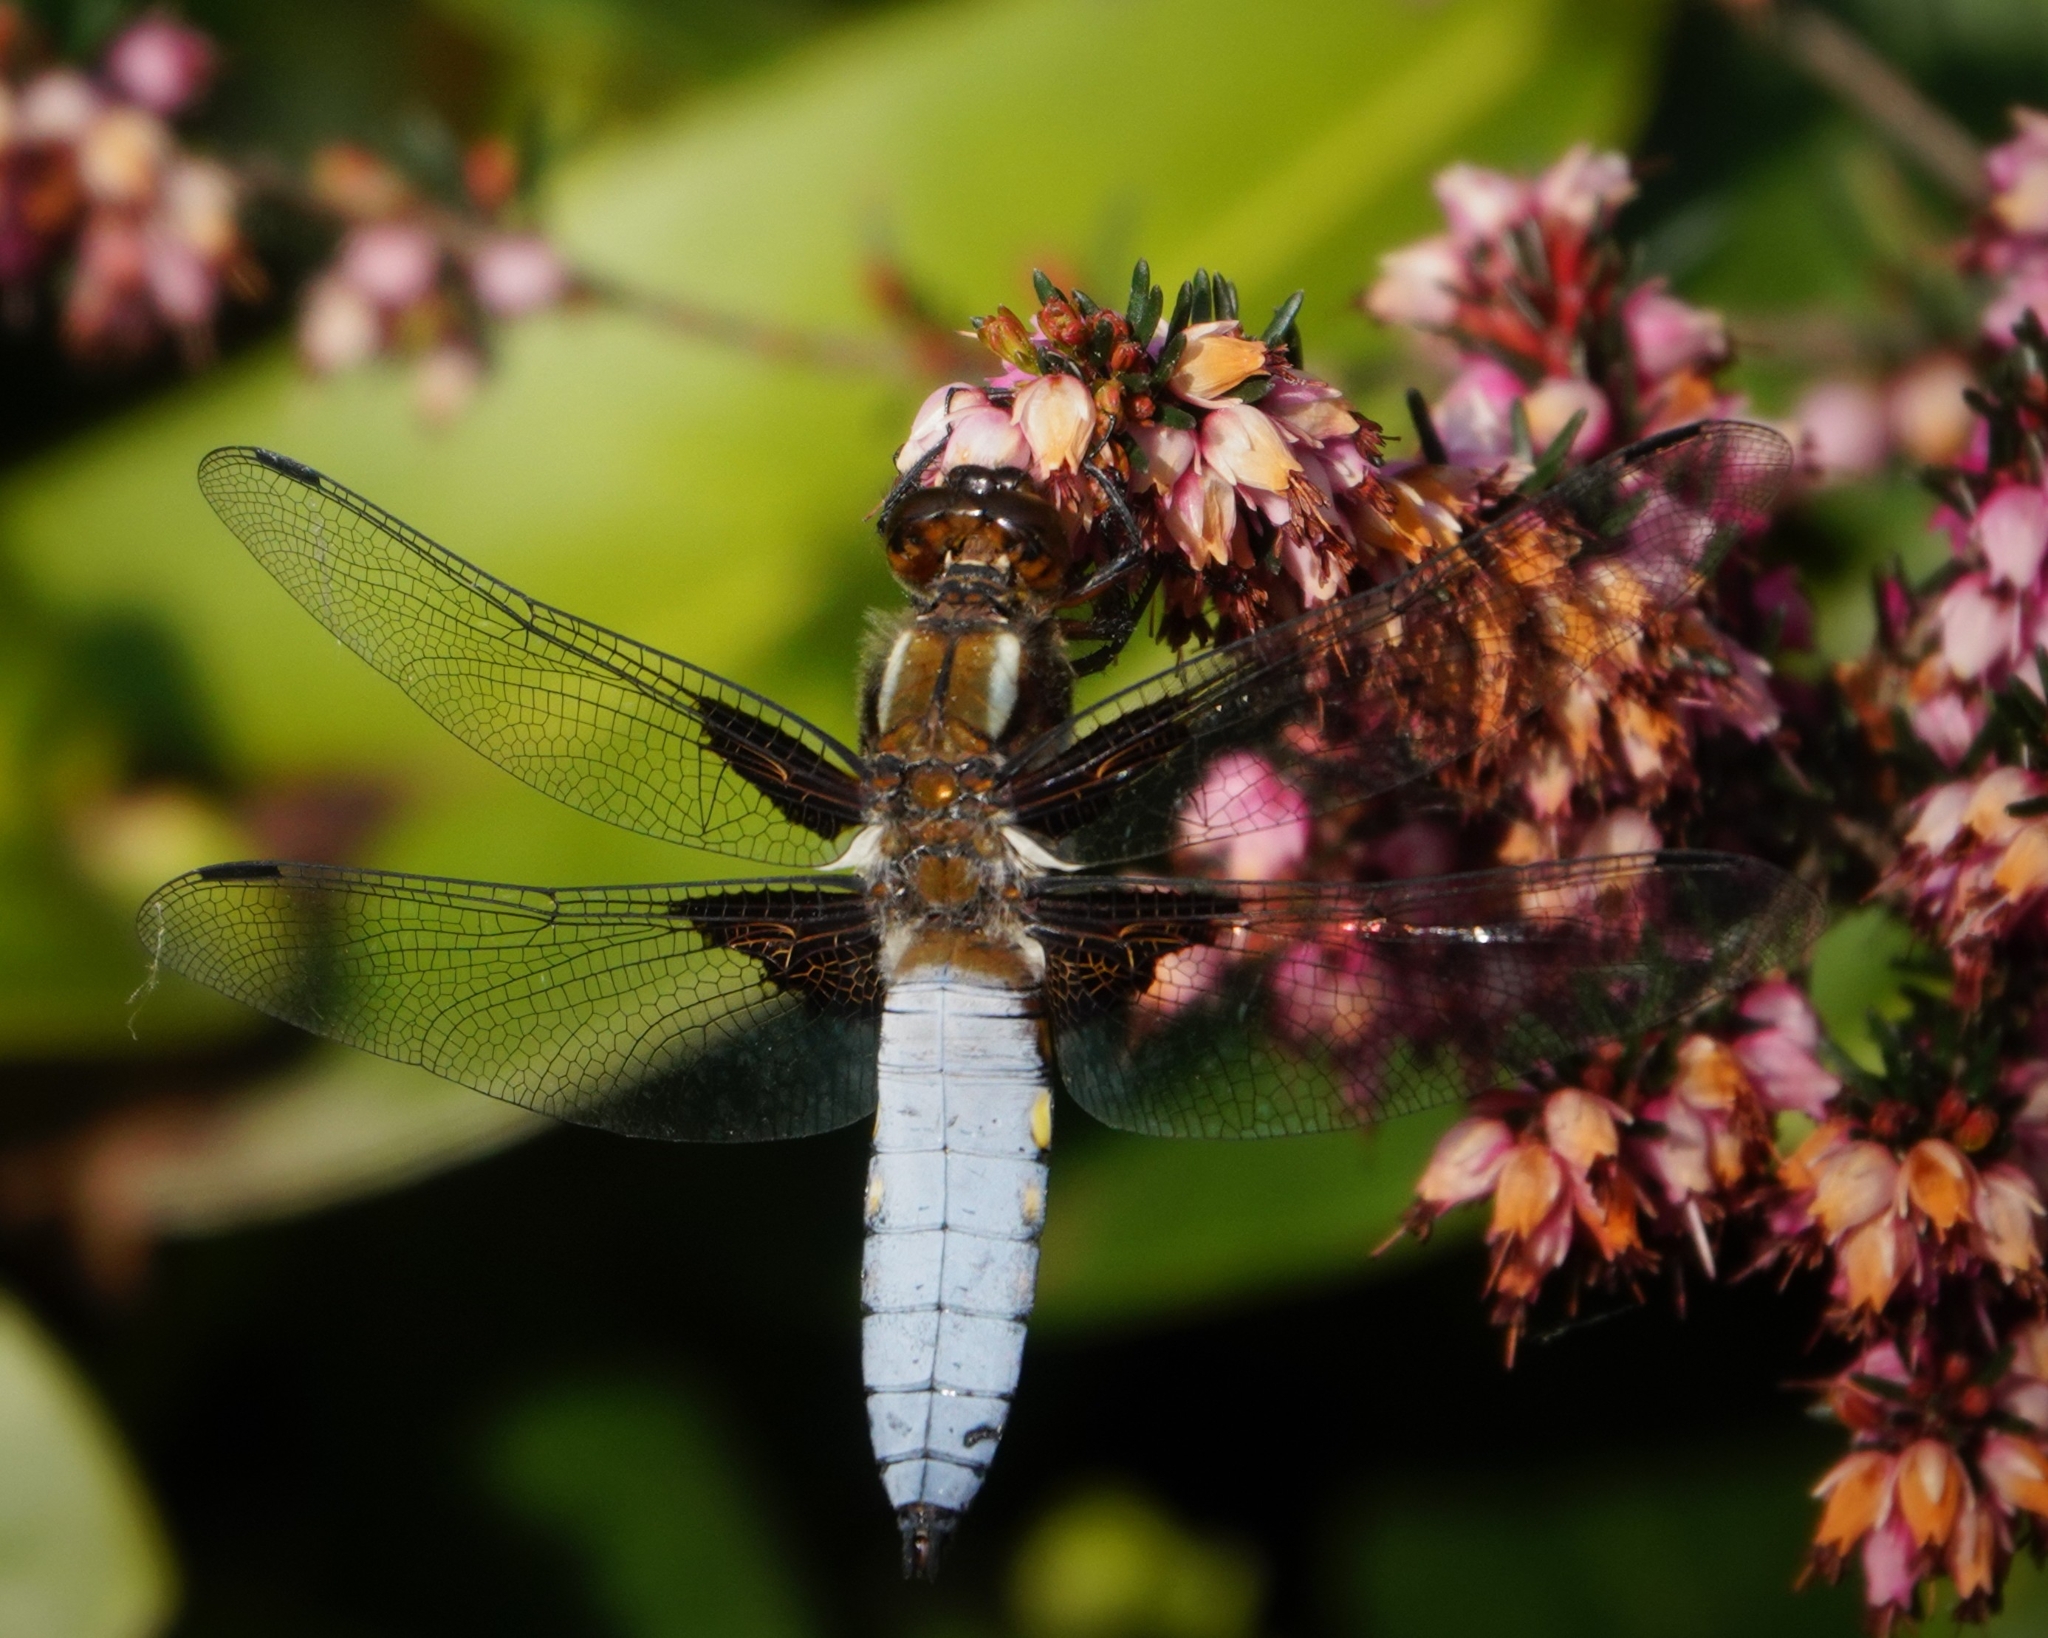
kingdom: Animalia
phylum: Arthropoda
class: Insecta
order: Odonata
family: Libellulidae
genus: Libellula
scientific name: Libellula depressa
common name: Broad-bodied chaser
